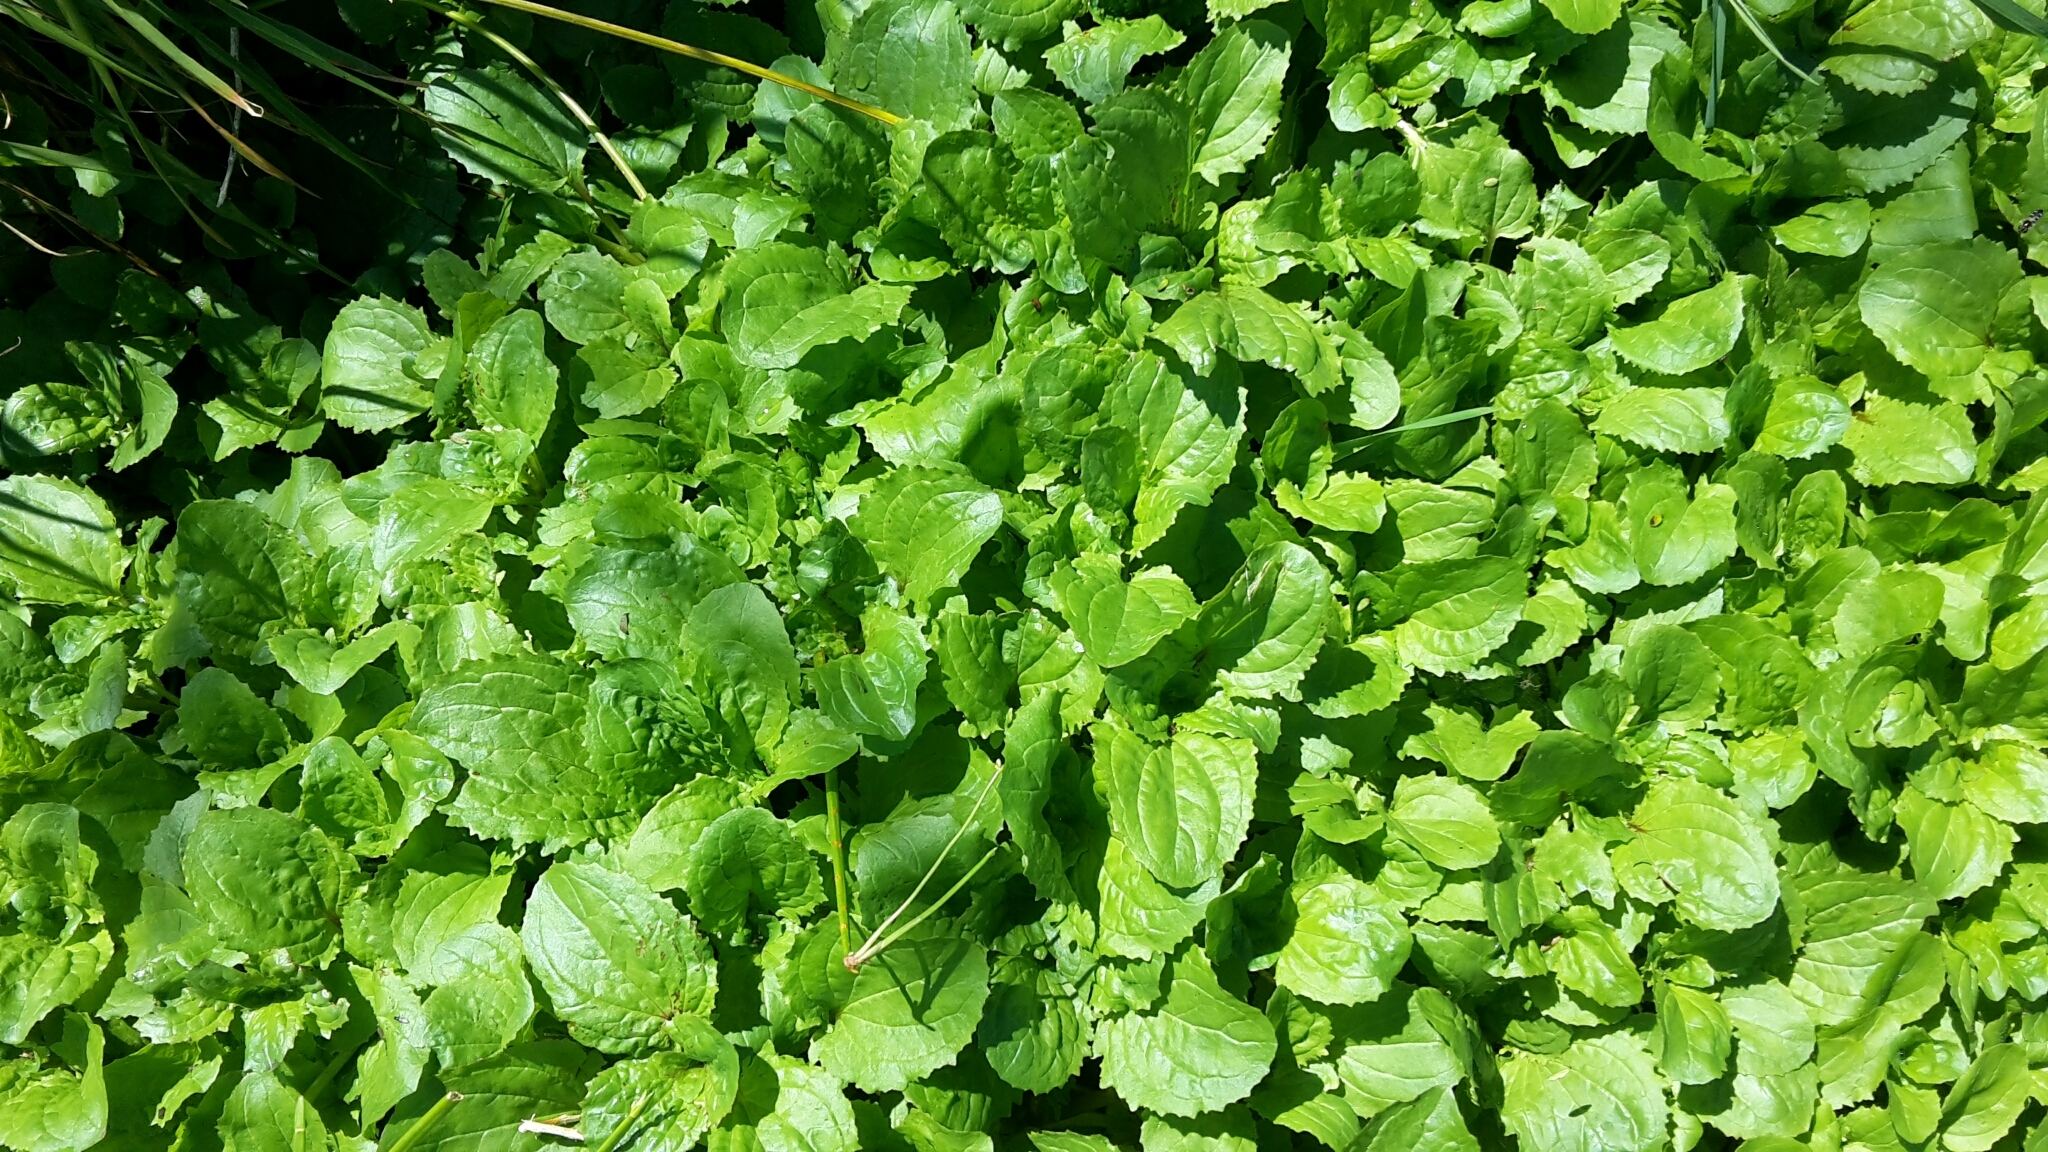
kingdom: Plantae
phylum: Tracheophyta
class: Magnoliopsida
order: Lamiales
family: Phrymaceae
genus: Erythranthe
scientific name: Erythranthe guttata
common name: Monkeyflower
